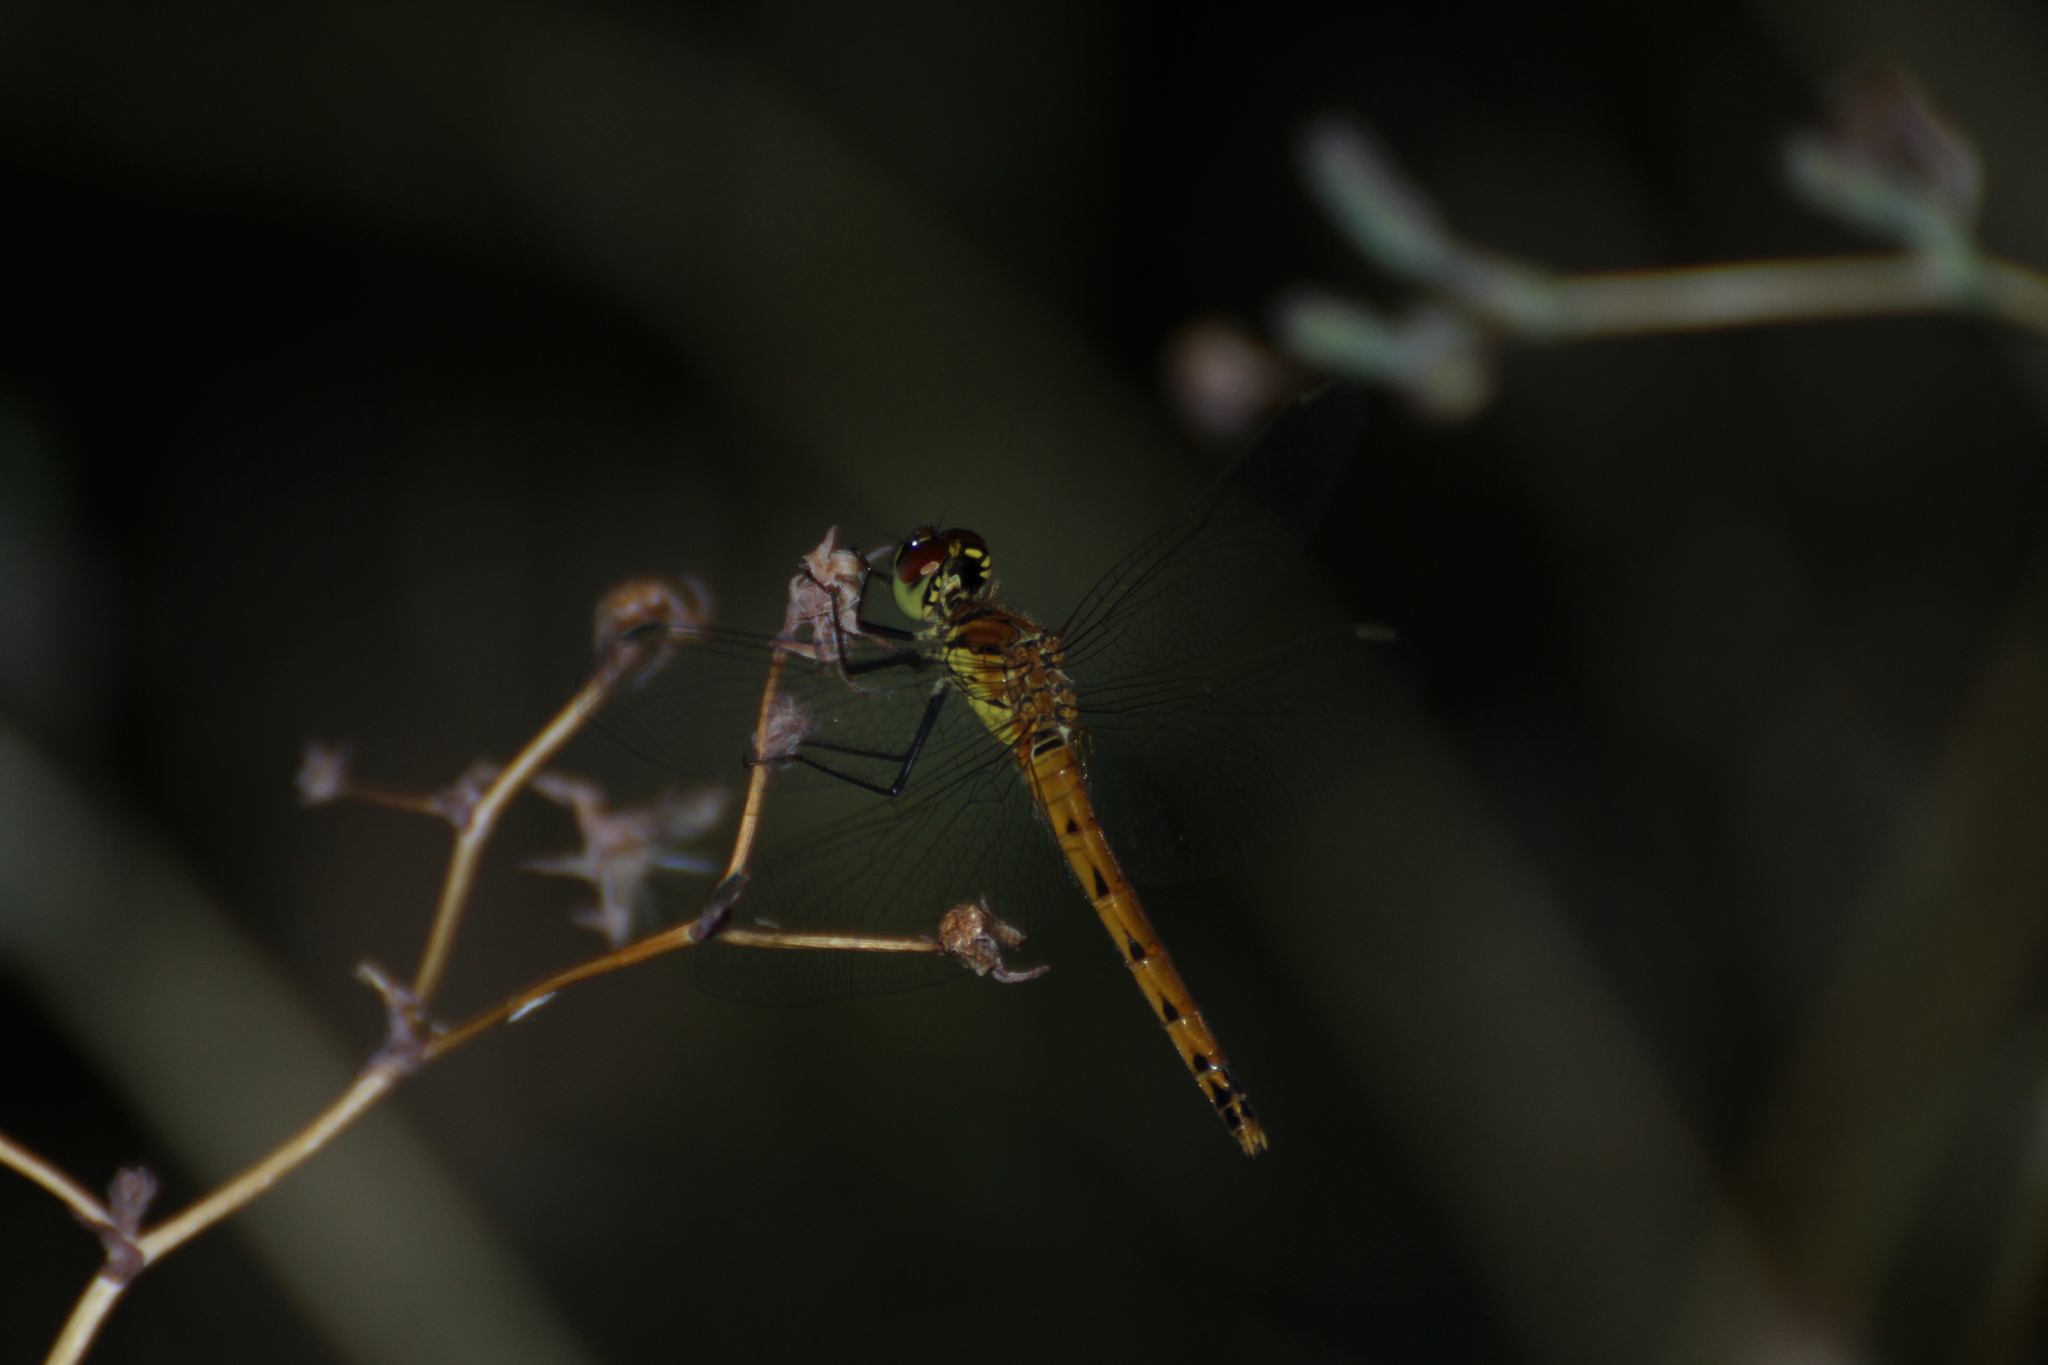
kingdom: Animalia
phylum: Arthropoda
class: Insecta
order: Odonata
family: Libellulidae
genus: Sympetrum
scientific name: Sympetrum depressiusculum
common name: Spotted darter
